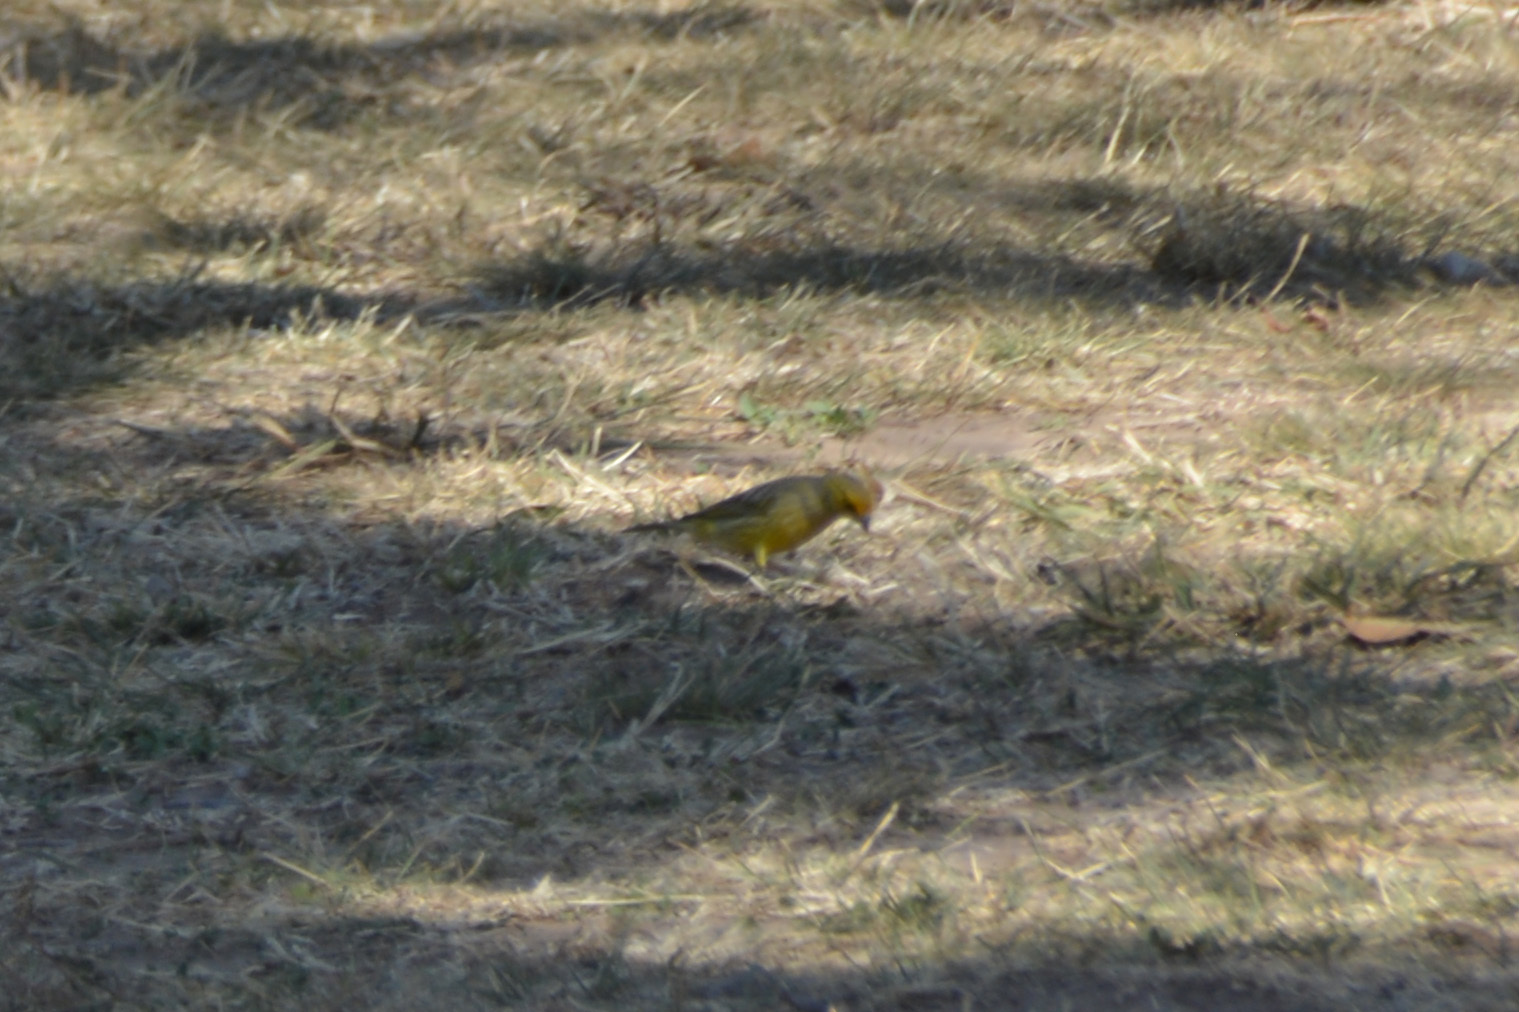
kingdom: Animalia
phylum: Chordata
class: Aves
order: Passeriformes
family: Thraupidae
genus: Sicalis
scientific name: Sicalis flaveola
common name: Saffron finch
